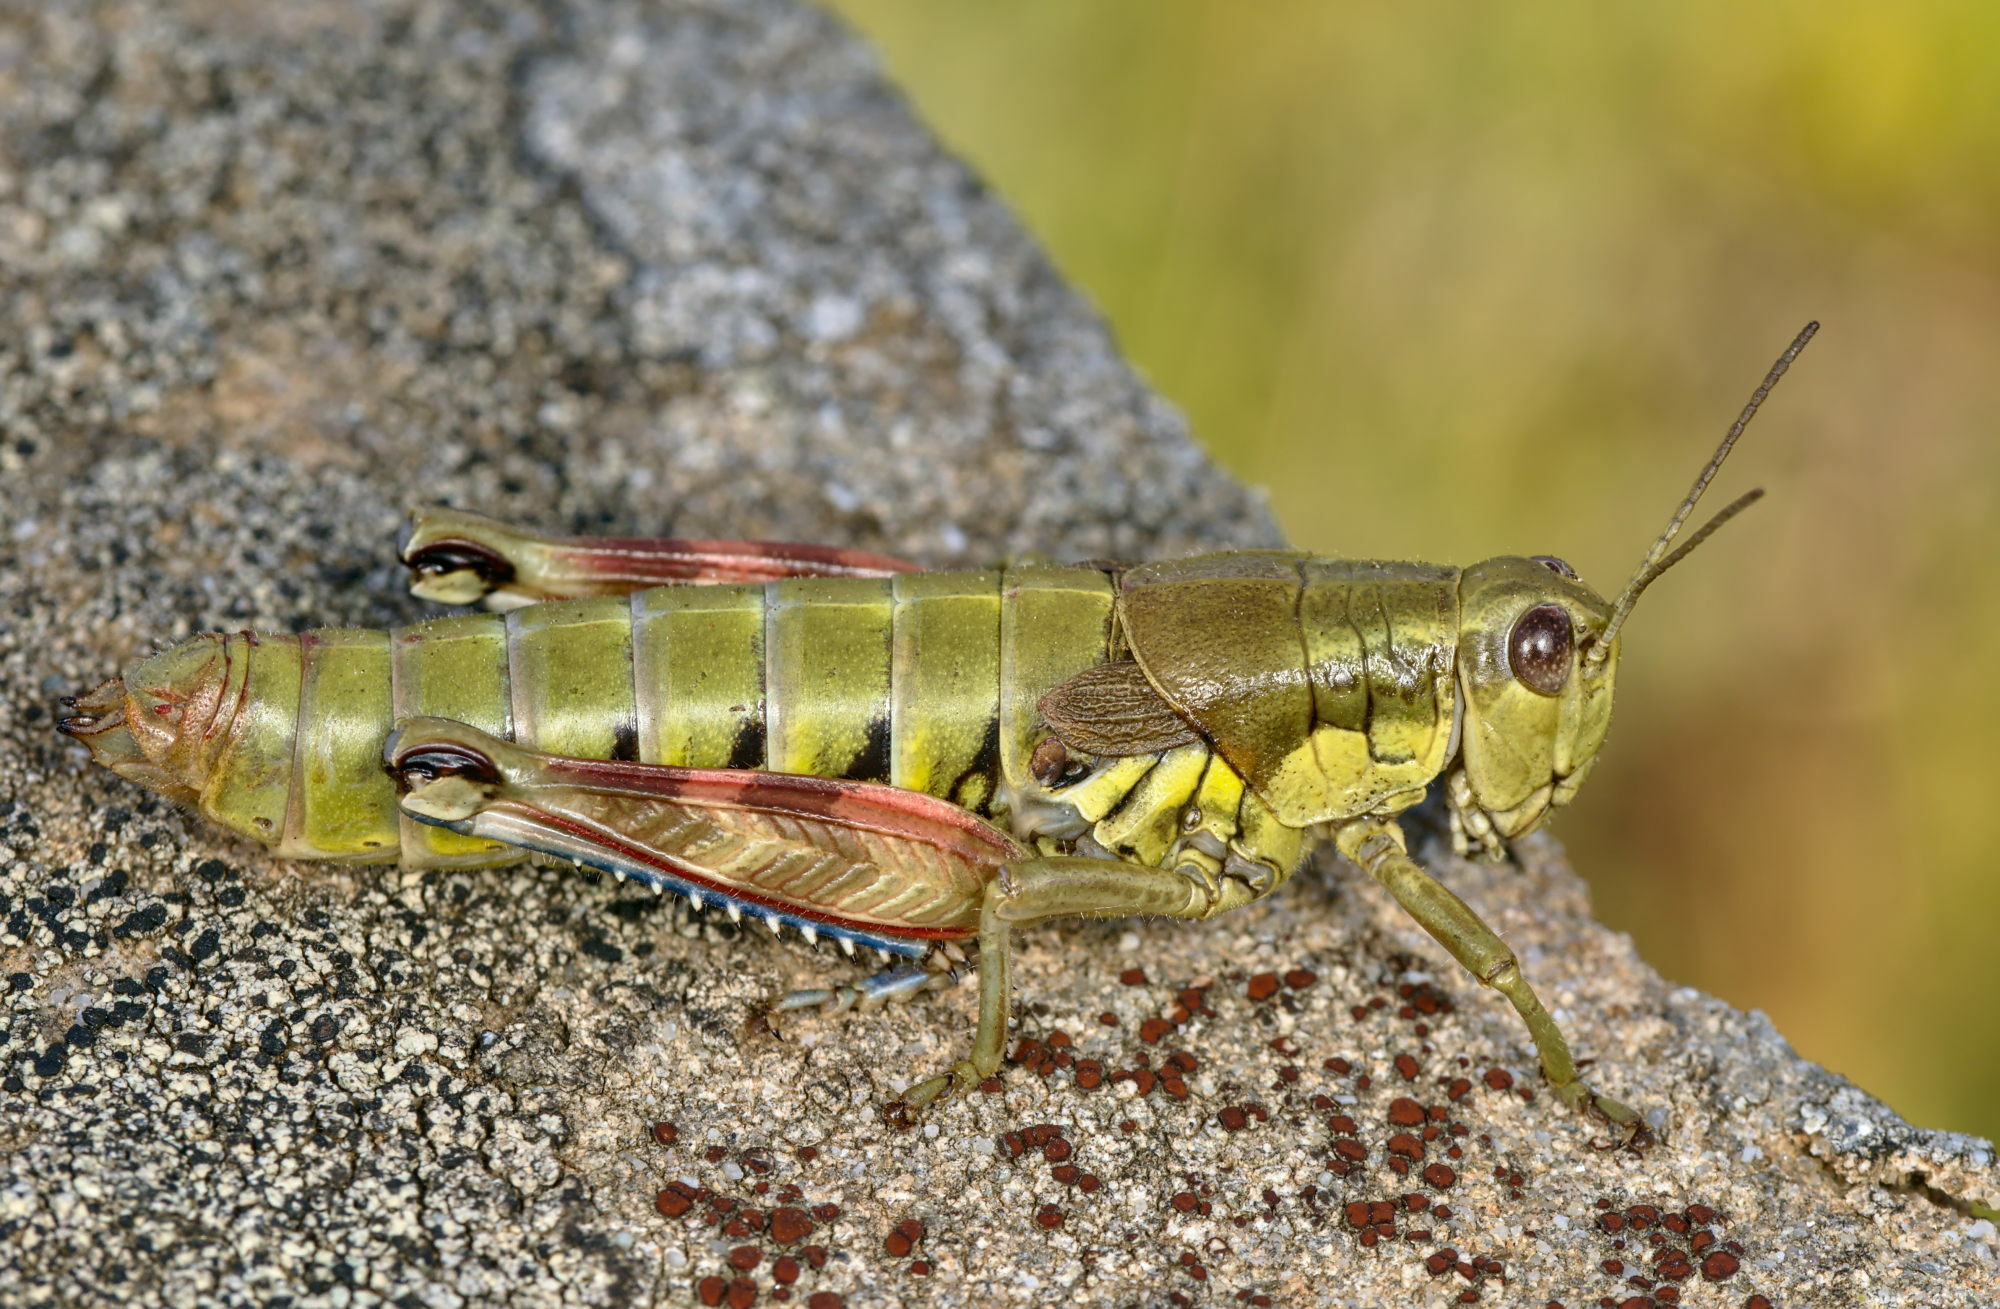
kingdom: Animalia
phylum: Arthropoda
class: Insecta
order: Orthoptera
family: Acrididae
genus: Podisma
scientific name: Podisma dechambrei
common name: Alpes-maritimes mountain grasshopper
